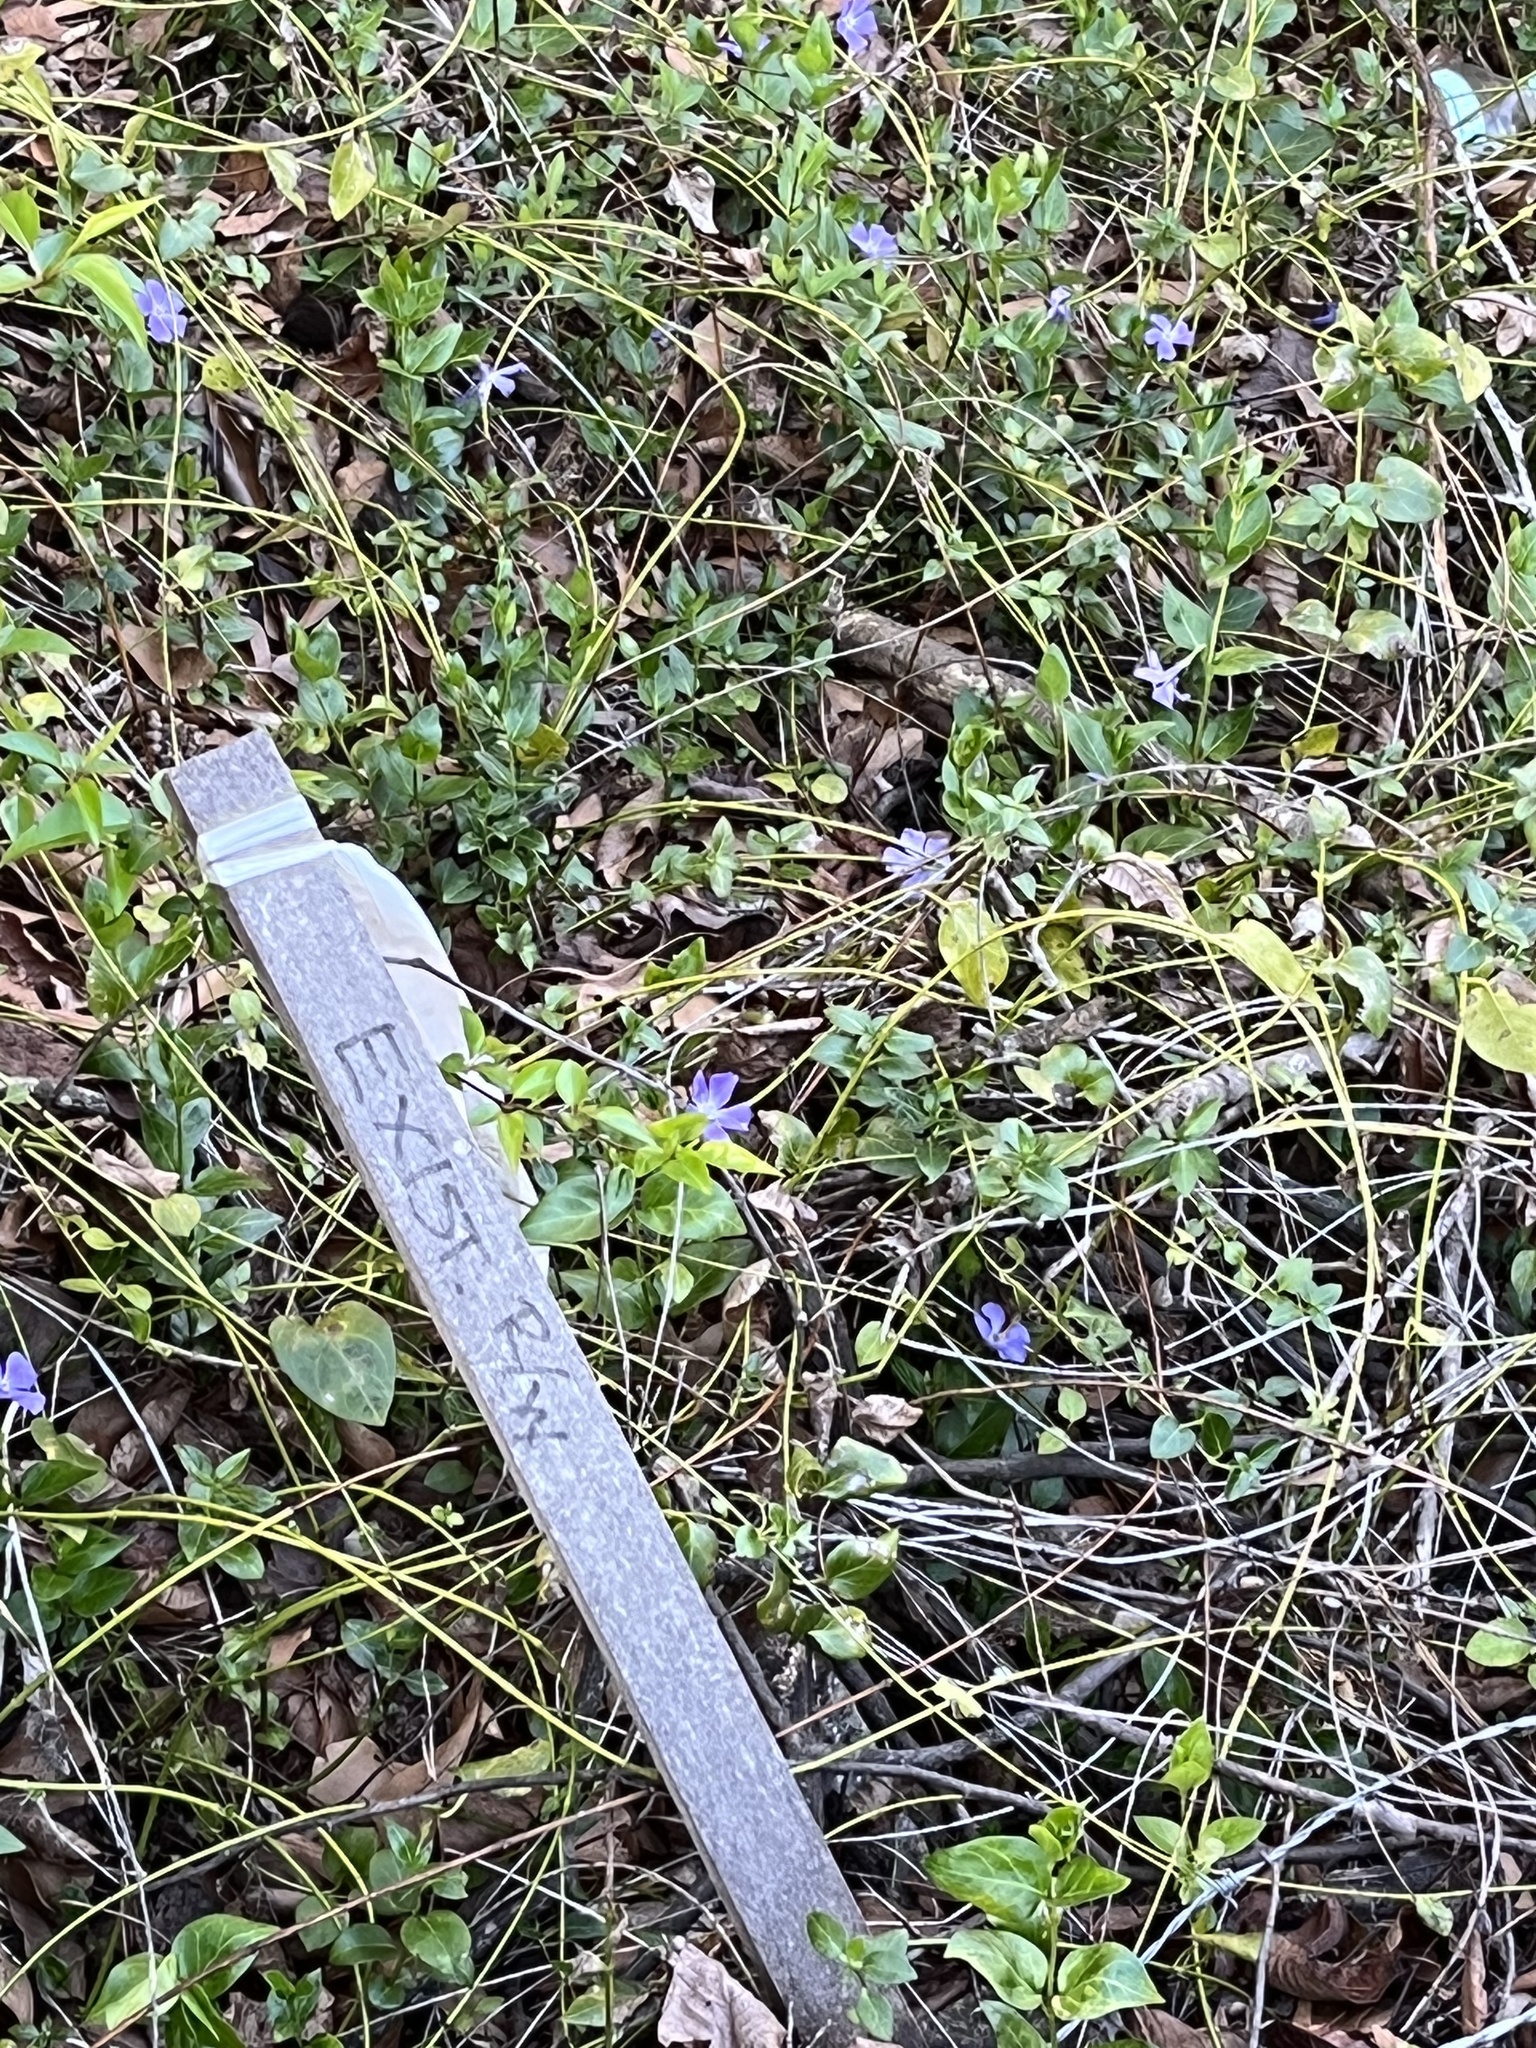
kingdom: Plantae
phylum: Tracheophyta
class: Magnoliopsida
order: Gentianales
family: Apocynaceae
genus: Vinca
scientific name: Vinca major
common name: Greater periwinkle
